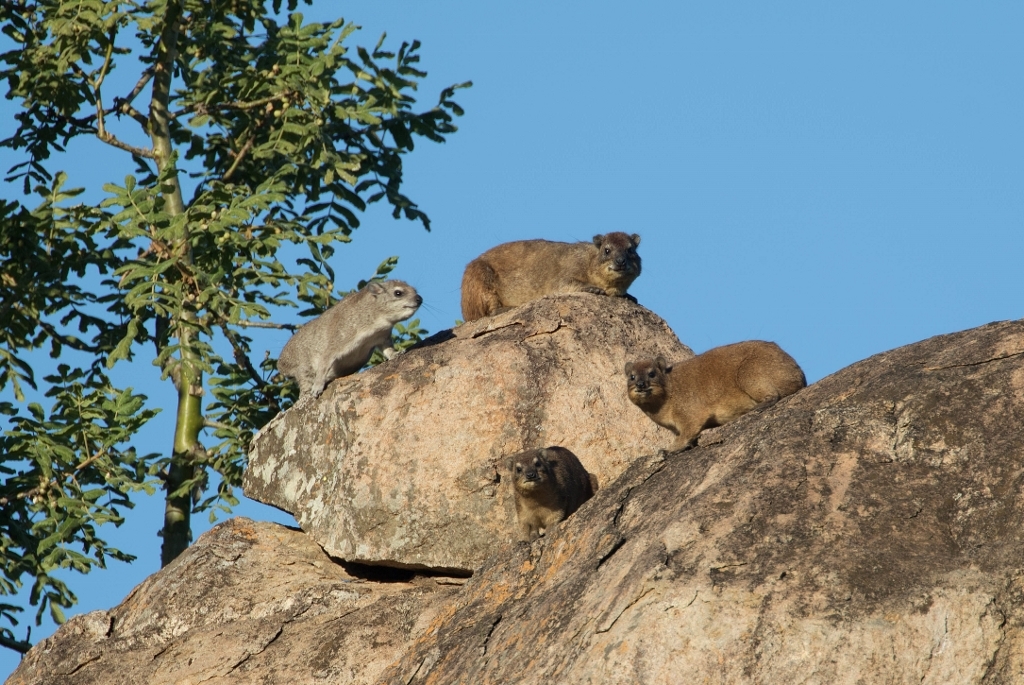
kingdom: Animalia
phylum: Chordata
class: Mammalia
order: Hyracoidea
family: Procaviidae
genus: Procavia
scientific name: Procavia capensis
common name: Rock hyrax
